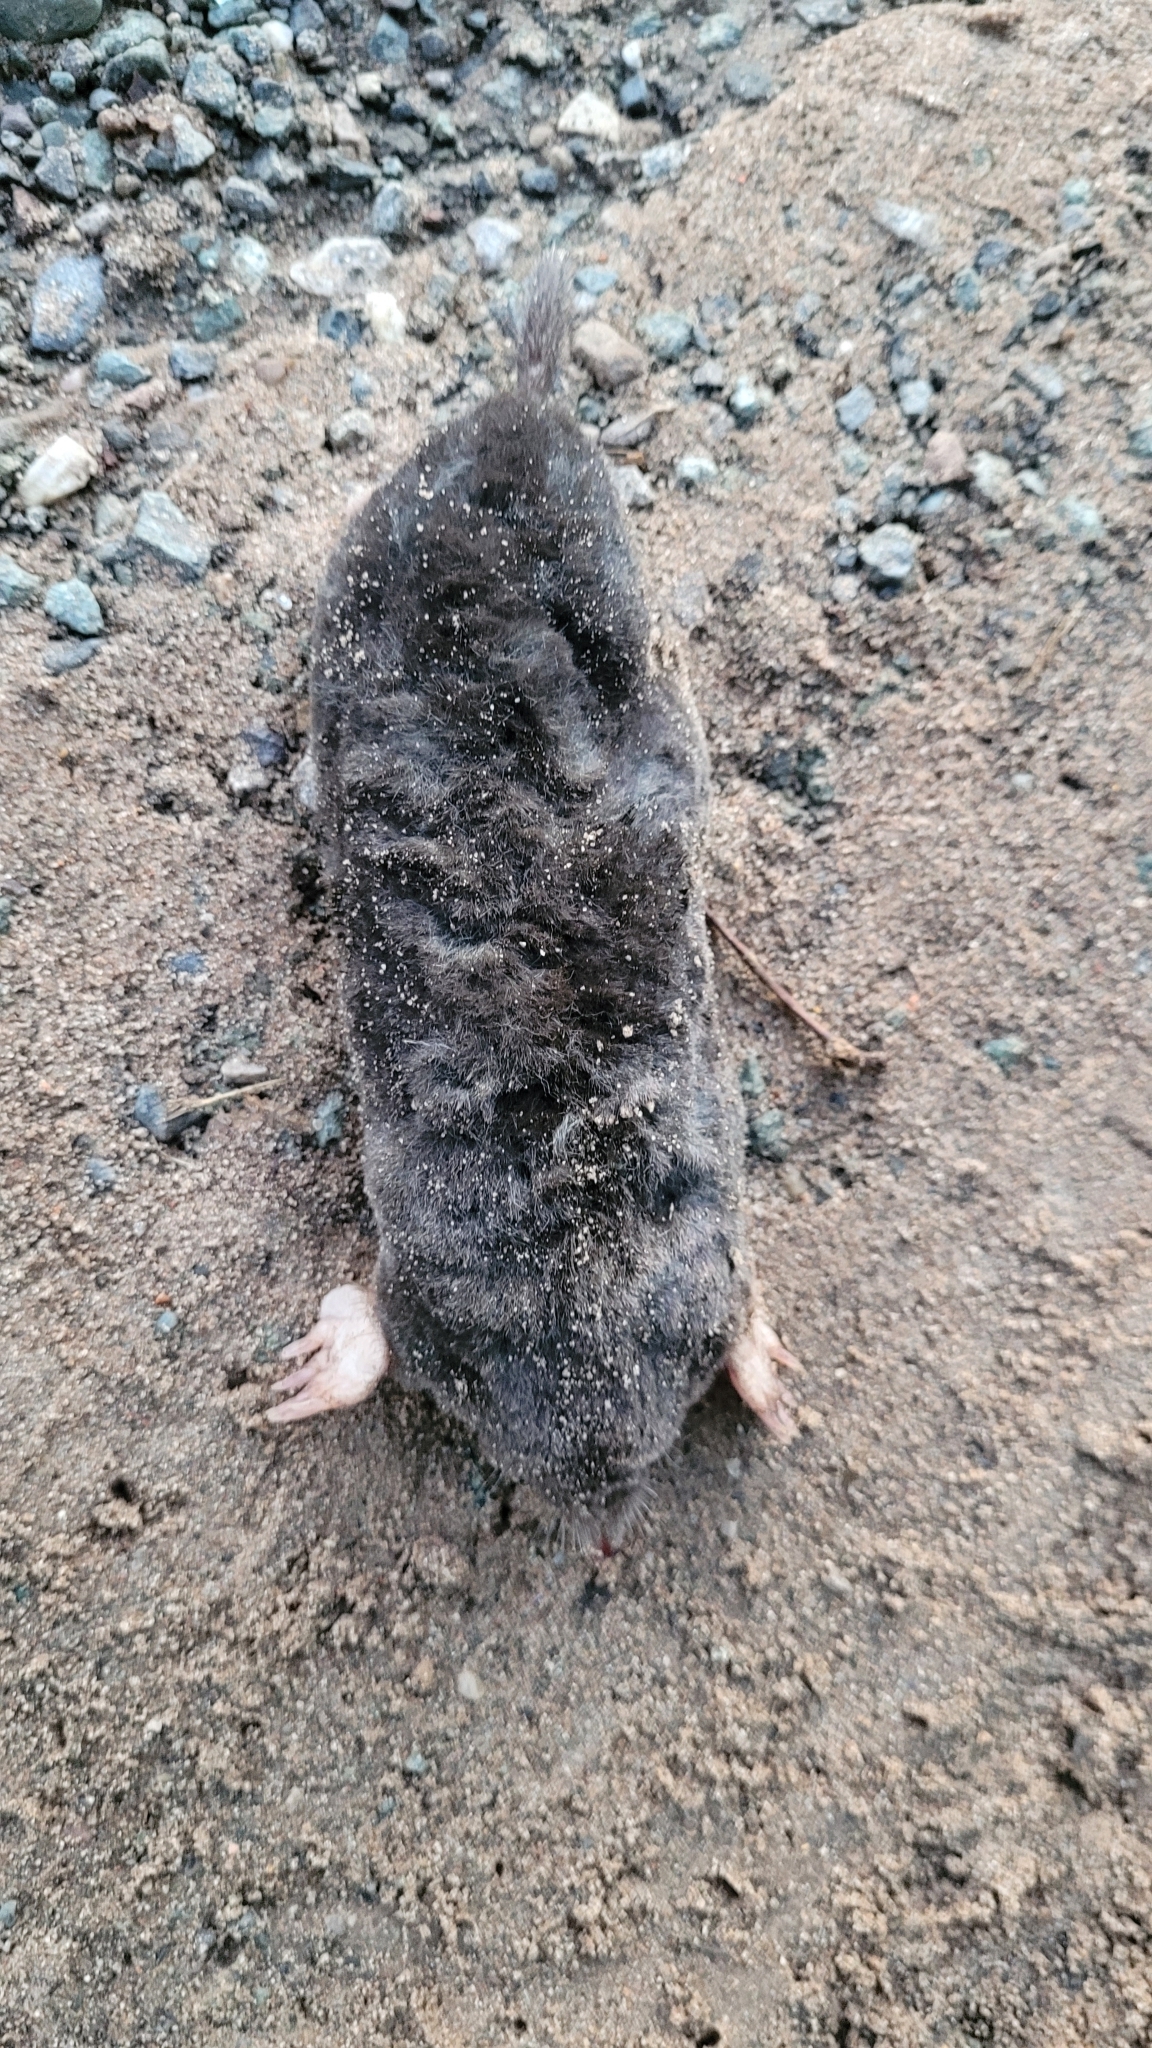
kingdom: Animalia
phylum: Chordata
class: Mammalia
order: Soricomorpha
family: Talpidae
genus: Talpa
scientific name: Talpa europaea
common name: European mole
